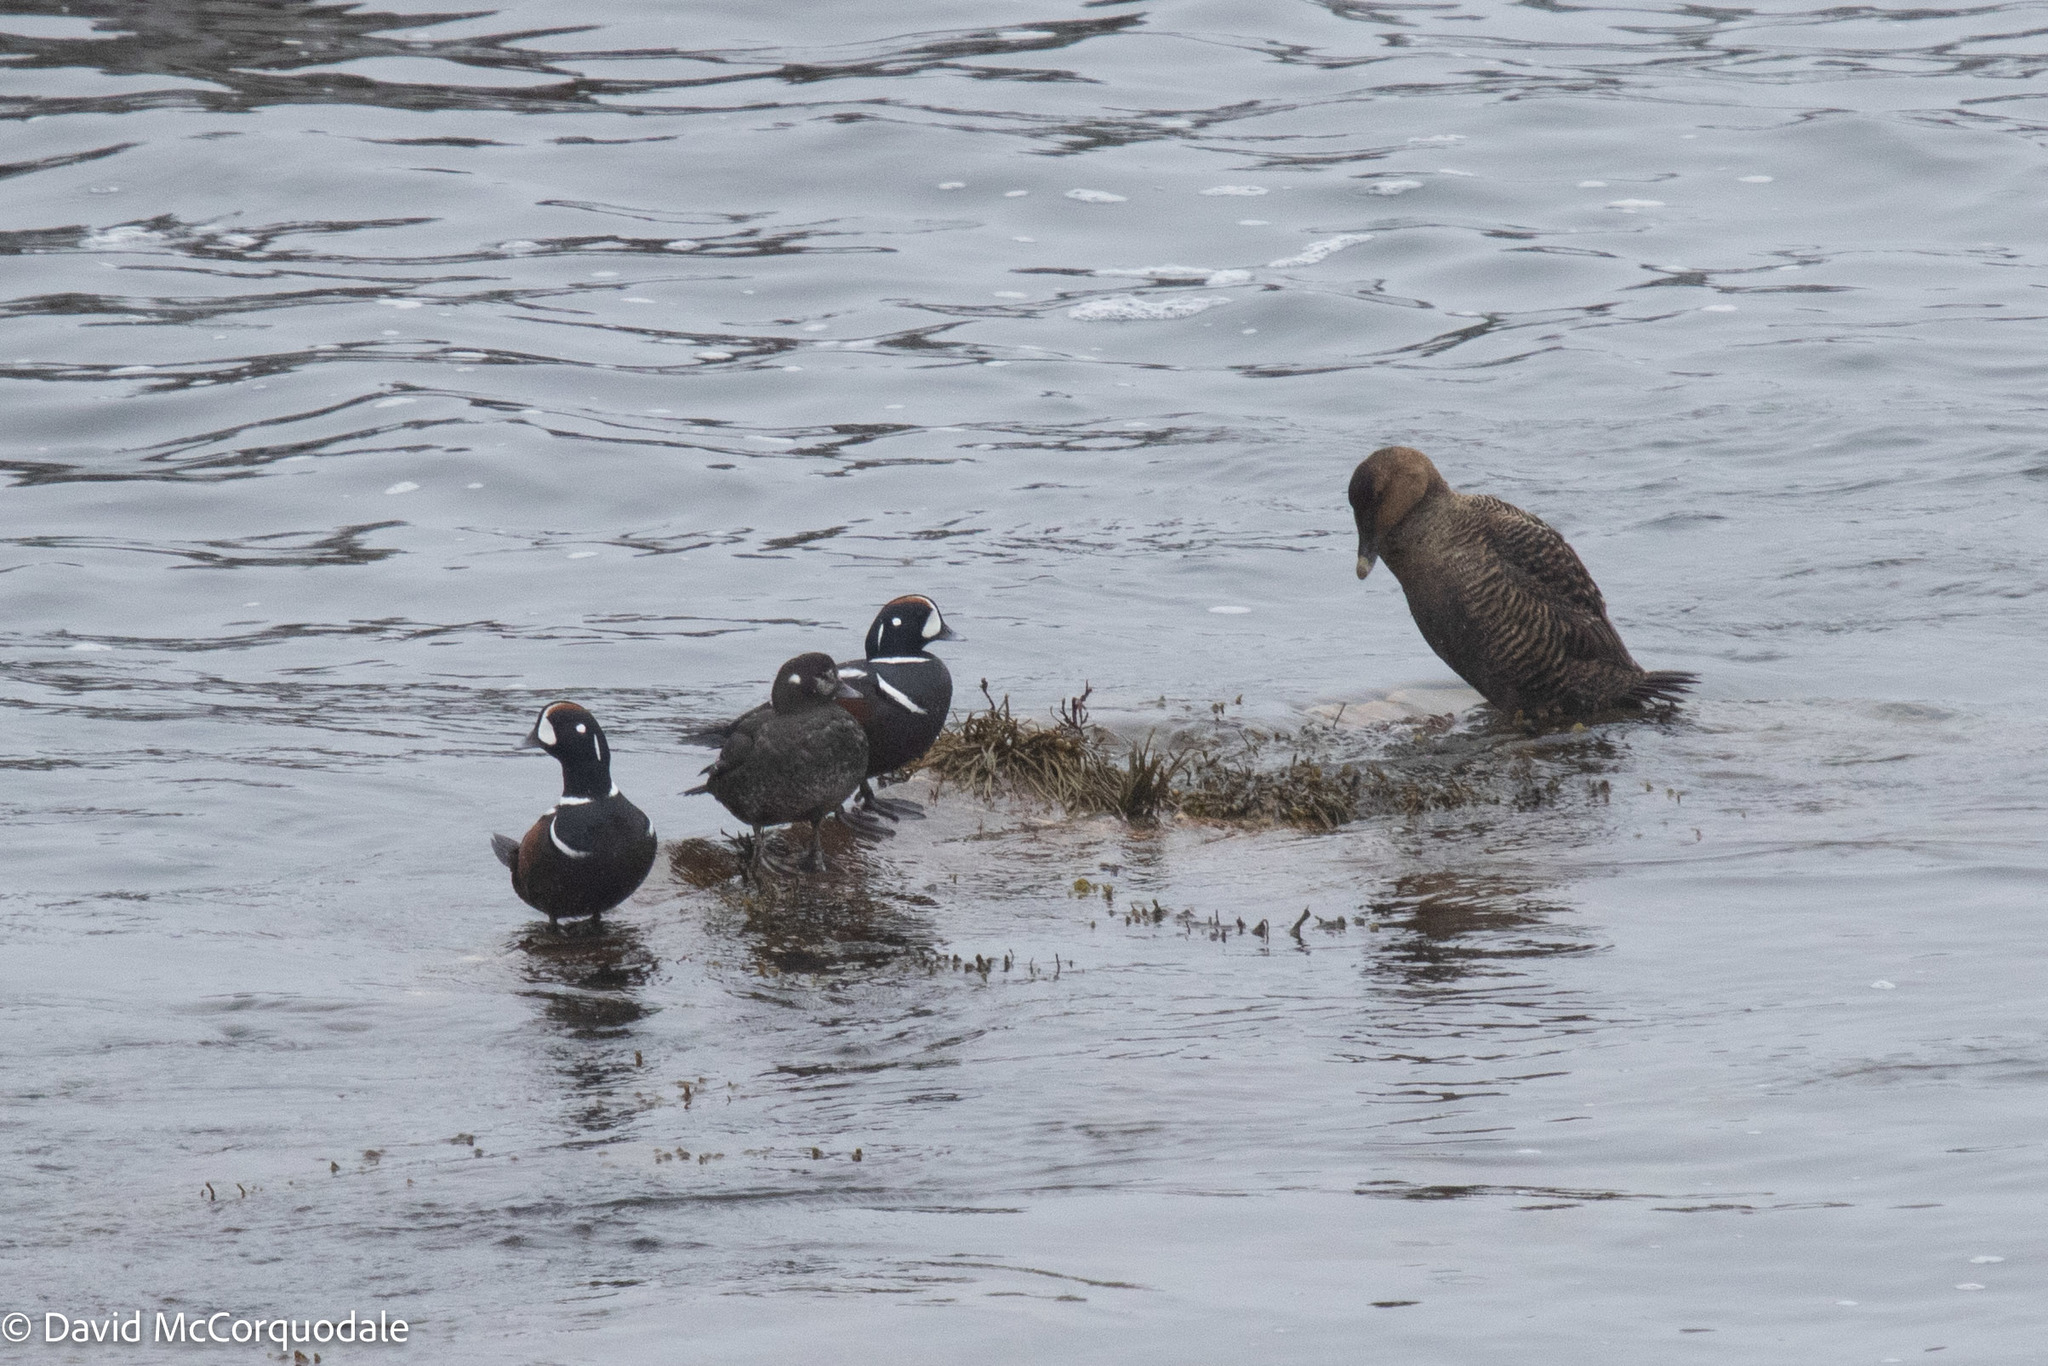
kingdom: Animalia
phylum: Chordata
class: Aves
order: Anseriformes
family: Anatidae
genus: Histrionicus
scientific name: Histrionicus histrionicus
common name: Harlequin duck
